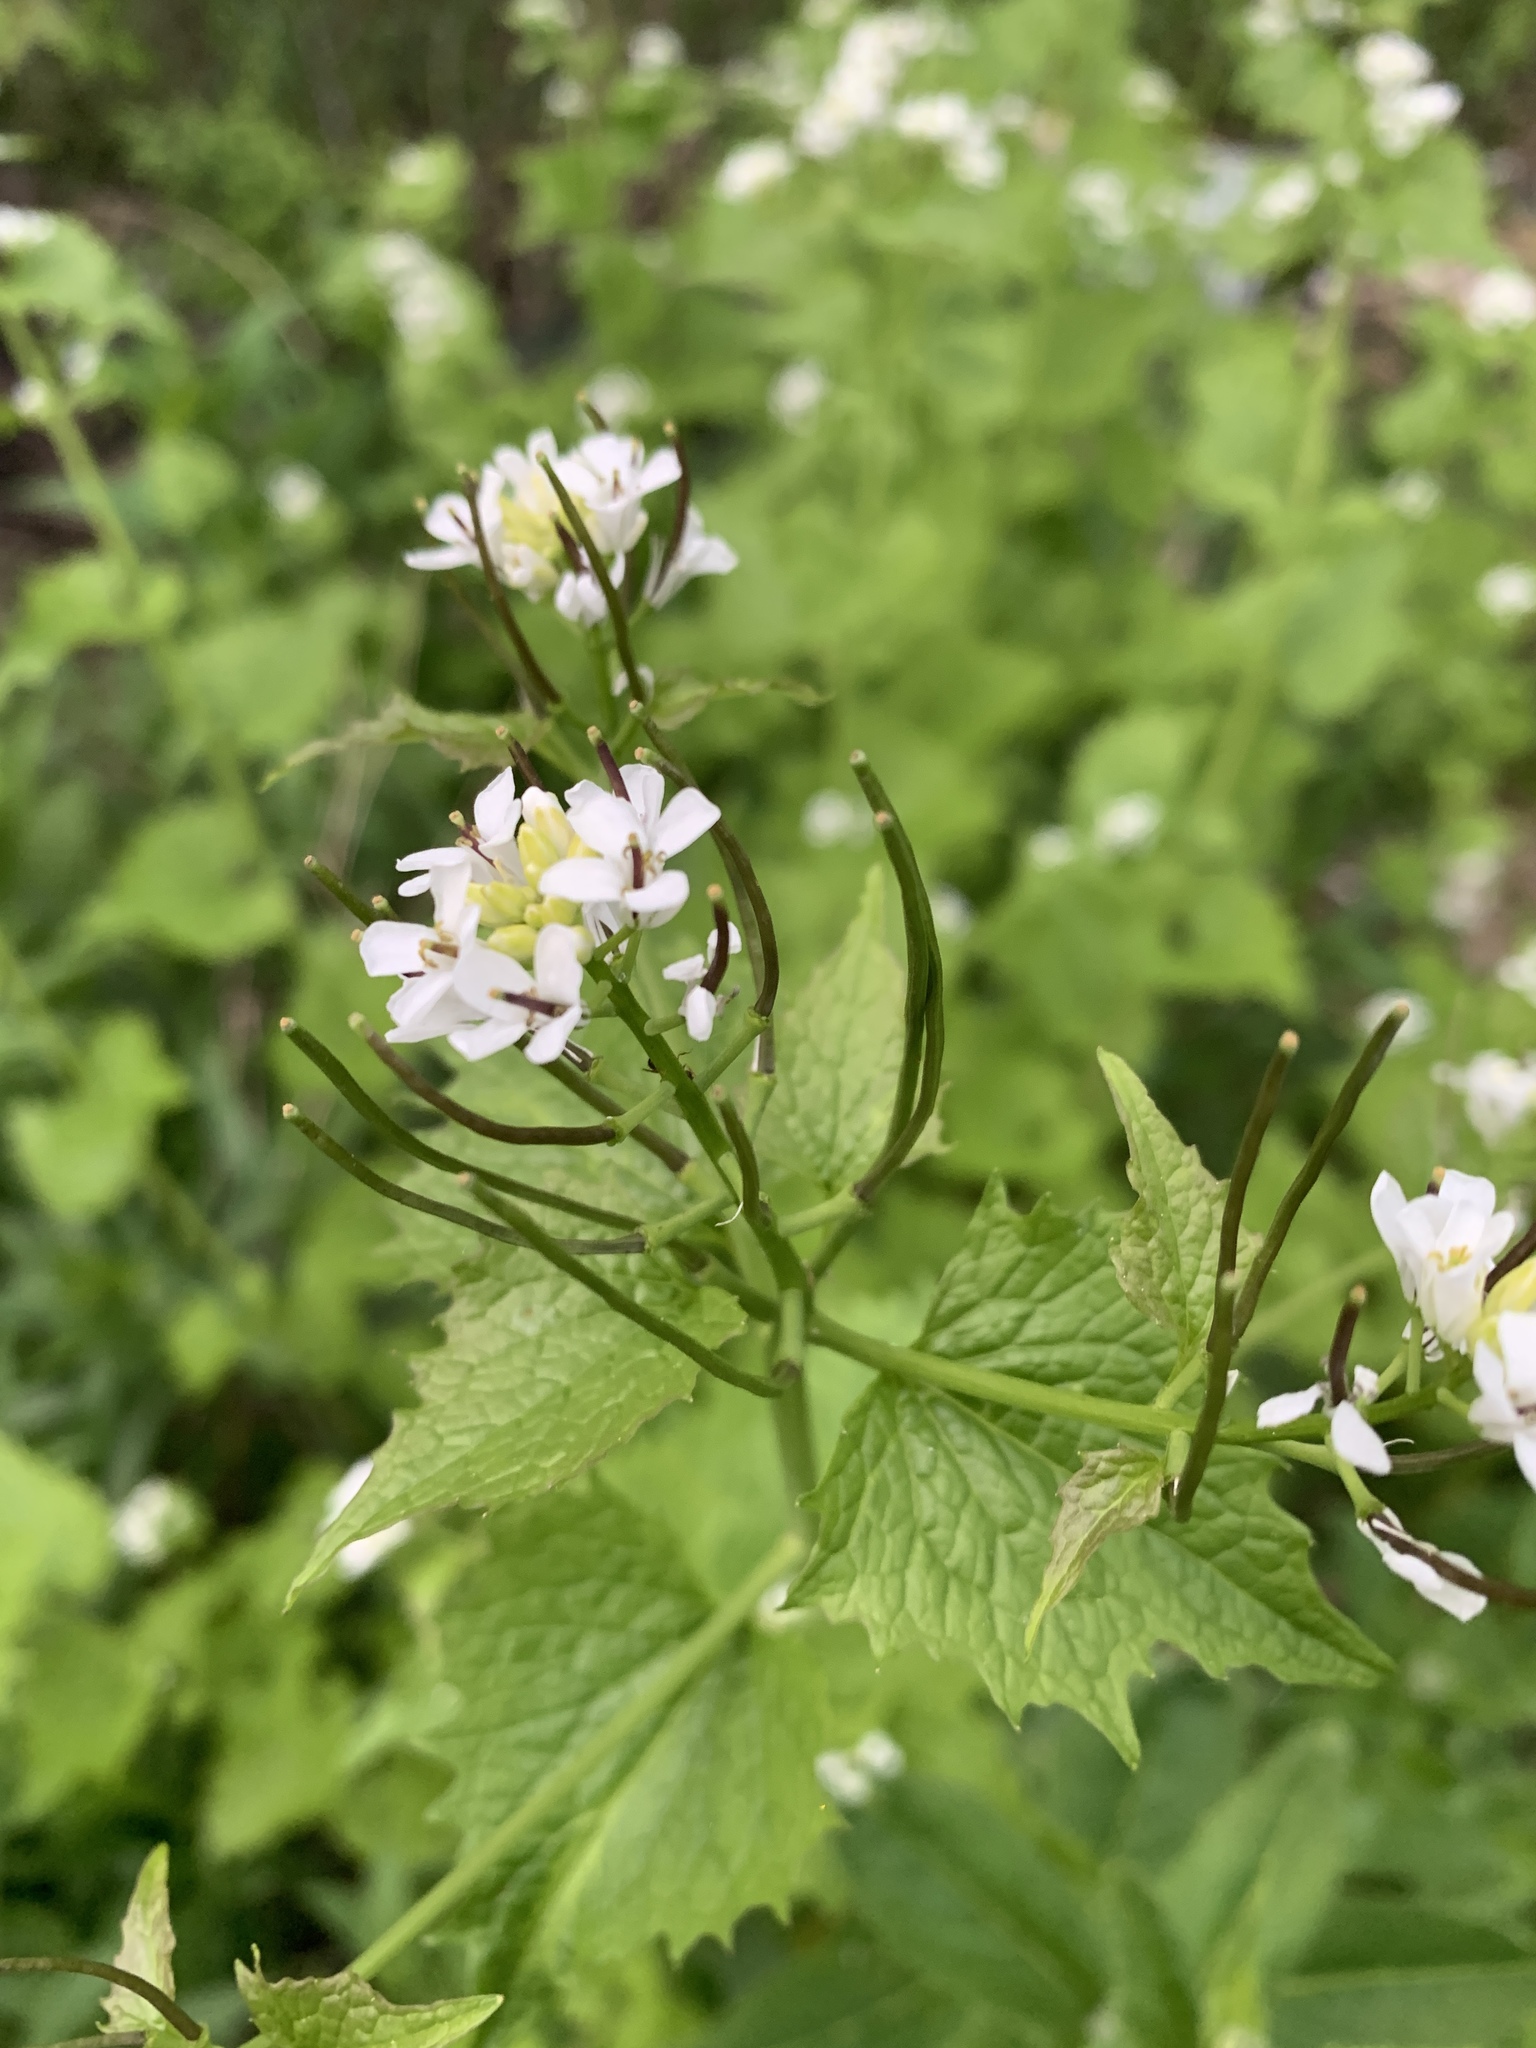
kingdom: Plantae
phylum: Tracheophyta
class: Magnoliopsida
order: Brassicales
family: Brassicaceae
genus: Alliaria
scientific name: Alliaria petiolata
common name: Garlic mustard
